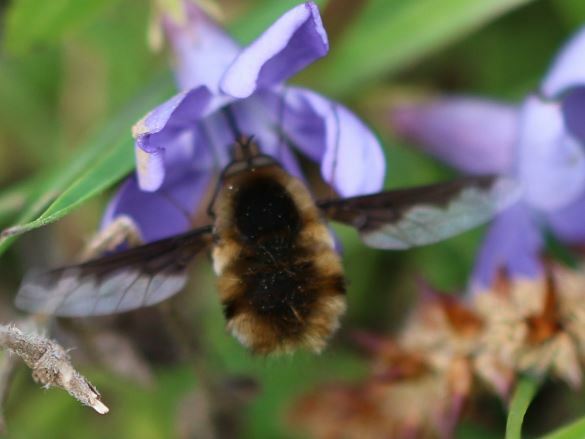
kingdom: Animalia
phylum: Arthropoda
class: Insecta
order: Diptera
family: Bombyliidae
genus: Bombylius
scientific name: Bombylius major
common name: Bee fly
